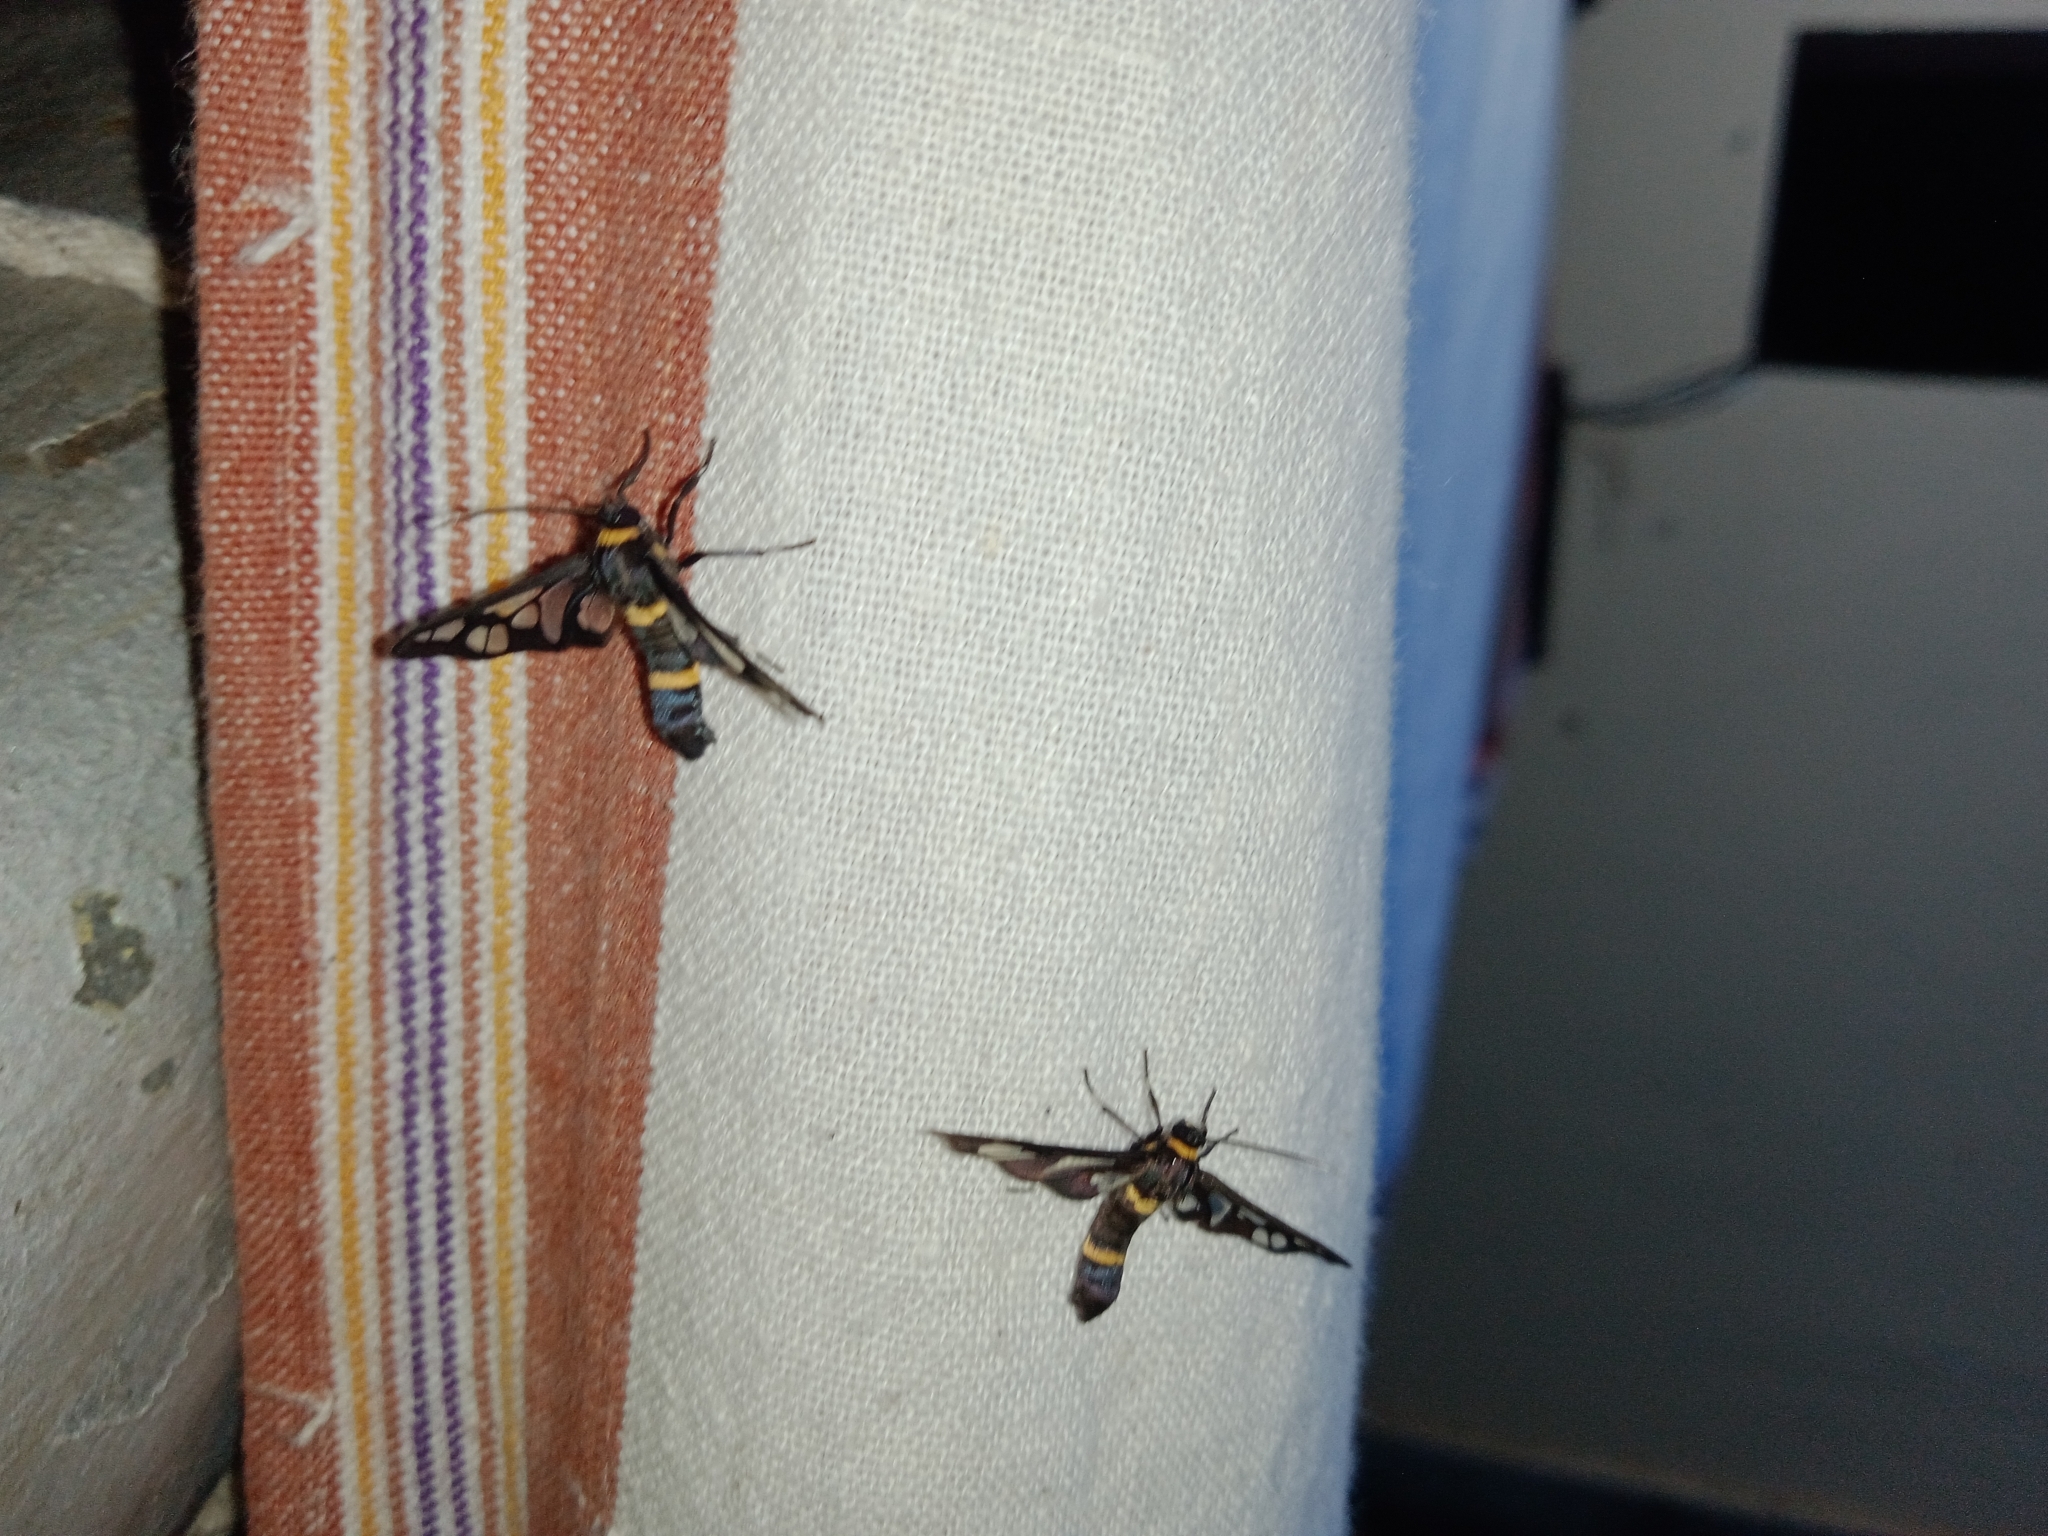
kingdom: Animalia
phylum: Arthropoda
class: Insecta
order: Lepidoptera
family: Erebidae
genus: Syntomoides
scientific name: Syntomoides imaon
